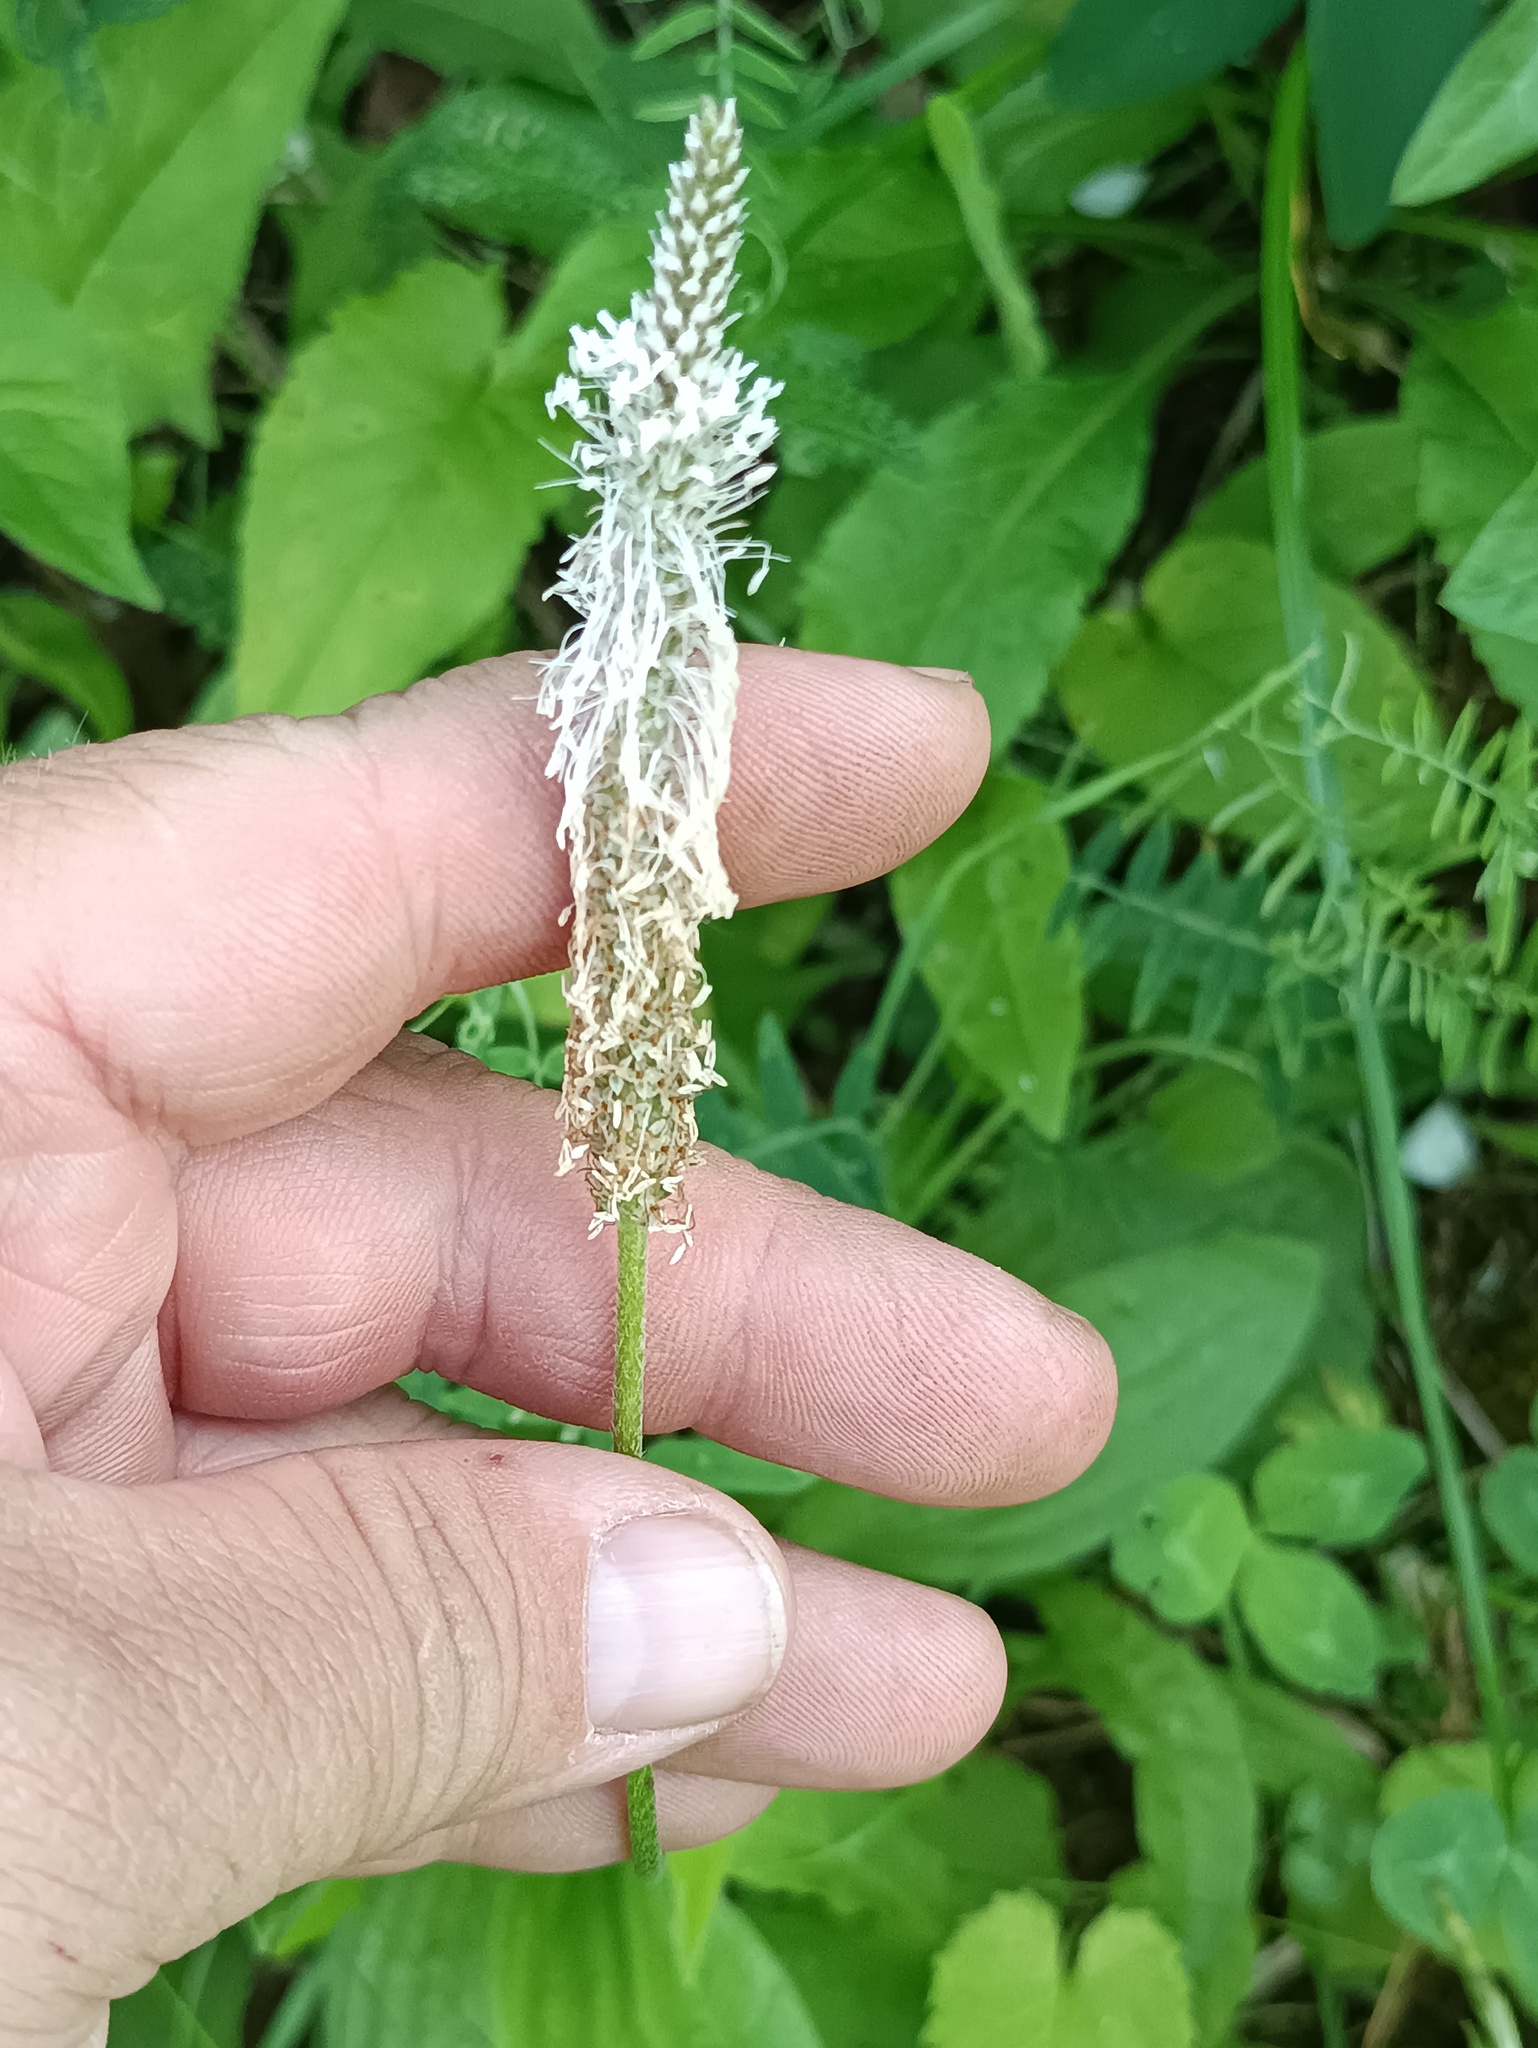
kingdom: Plantae
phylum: Tracheophyta
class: Magnoliopsida
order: Lamiales
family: Plantaginaceae
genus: Plantago
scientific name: Plantago urvillei
